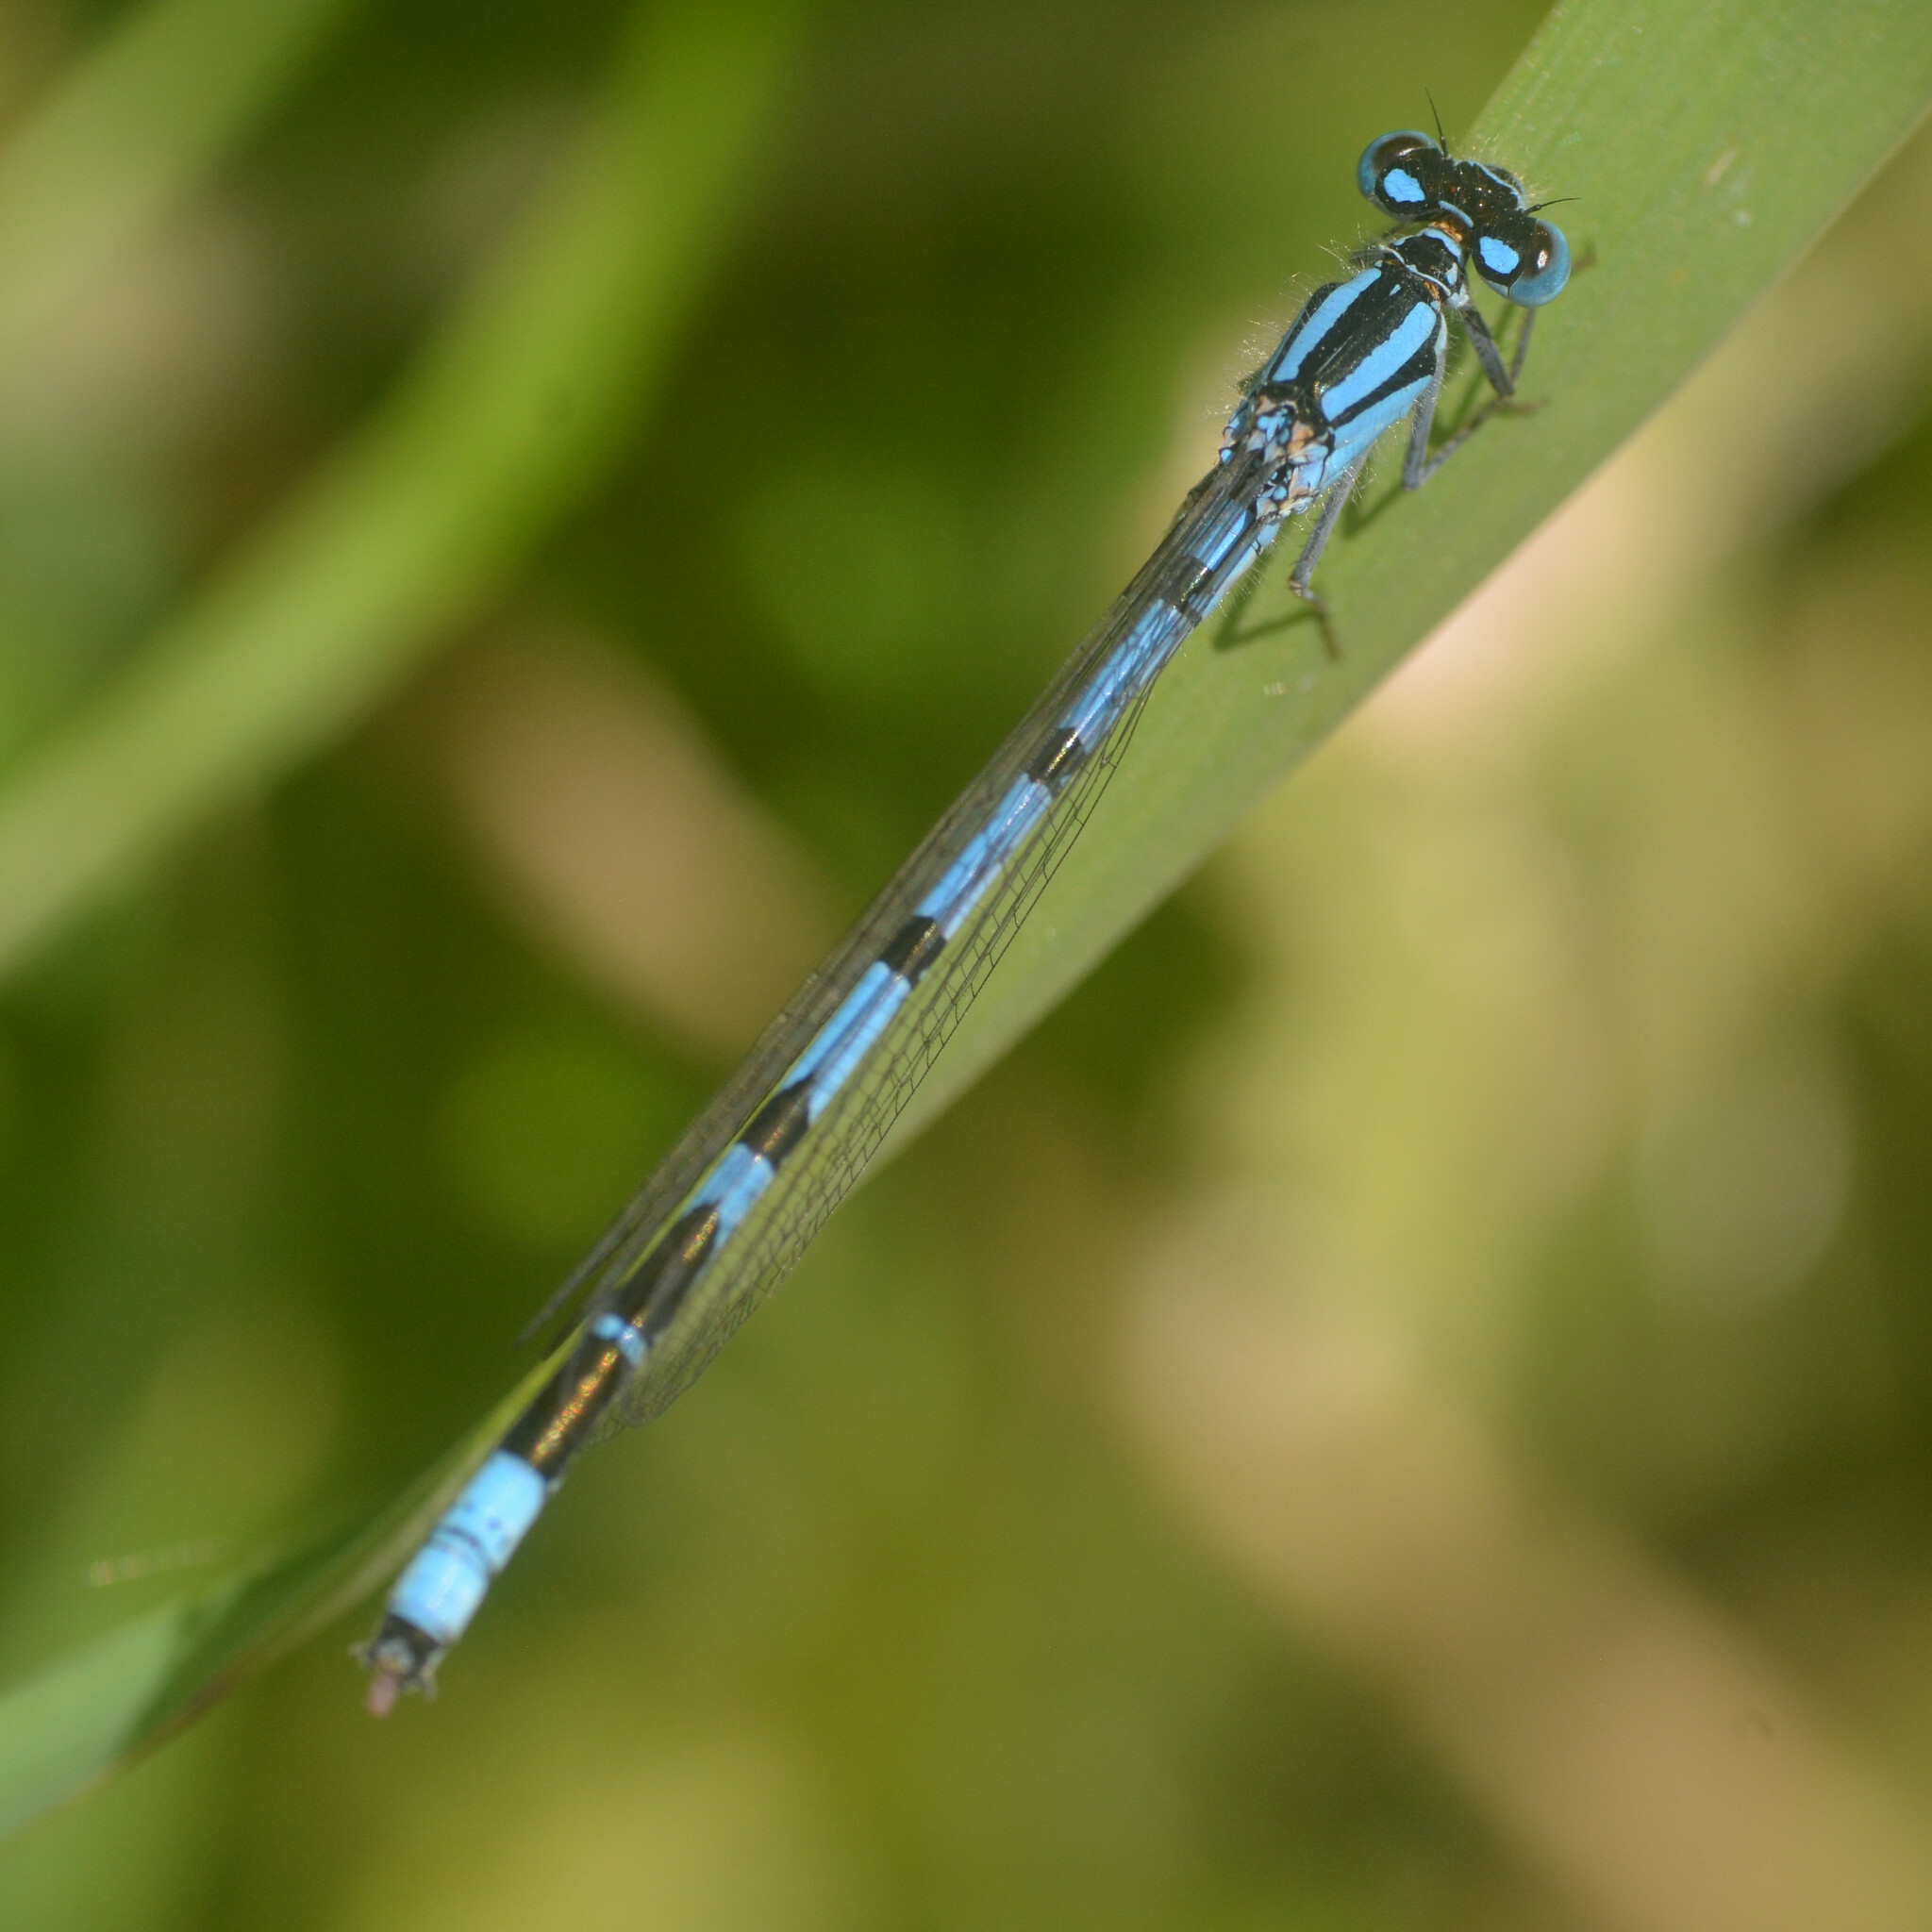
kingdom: Animalia
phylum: Arthropoda
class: Insecta
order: Odonata
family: Coenagrionidae
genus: Enallagma
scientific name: Enallagma cyathigerum
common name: Common blue damselfly
